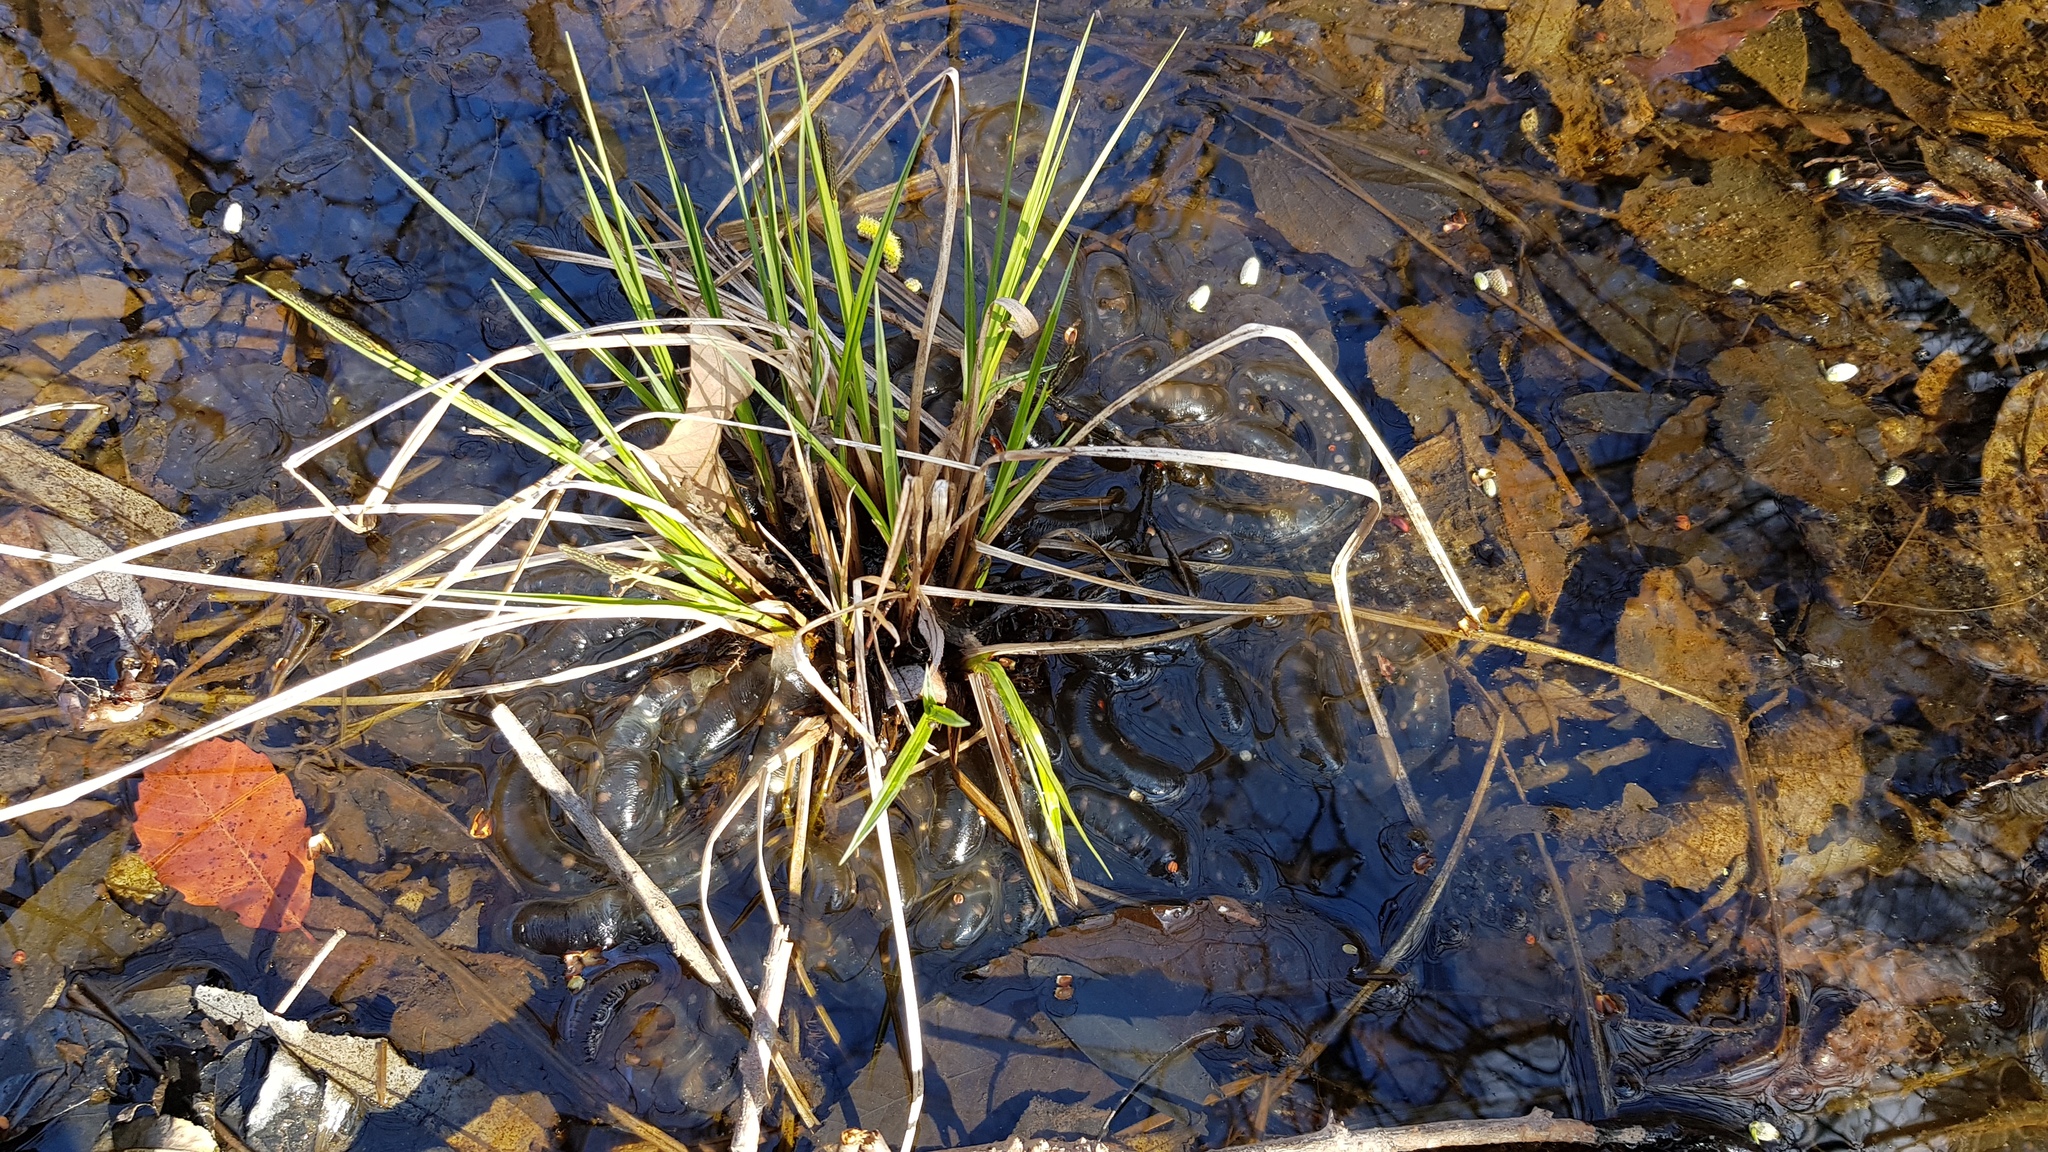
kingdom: Animalia
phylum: Chordata
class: Amphibia
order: Caudata
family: Hynobiidae
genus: Hynobius
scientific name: Hynobius leechii
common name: Gensan salamander
